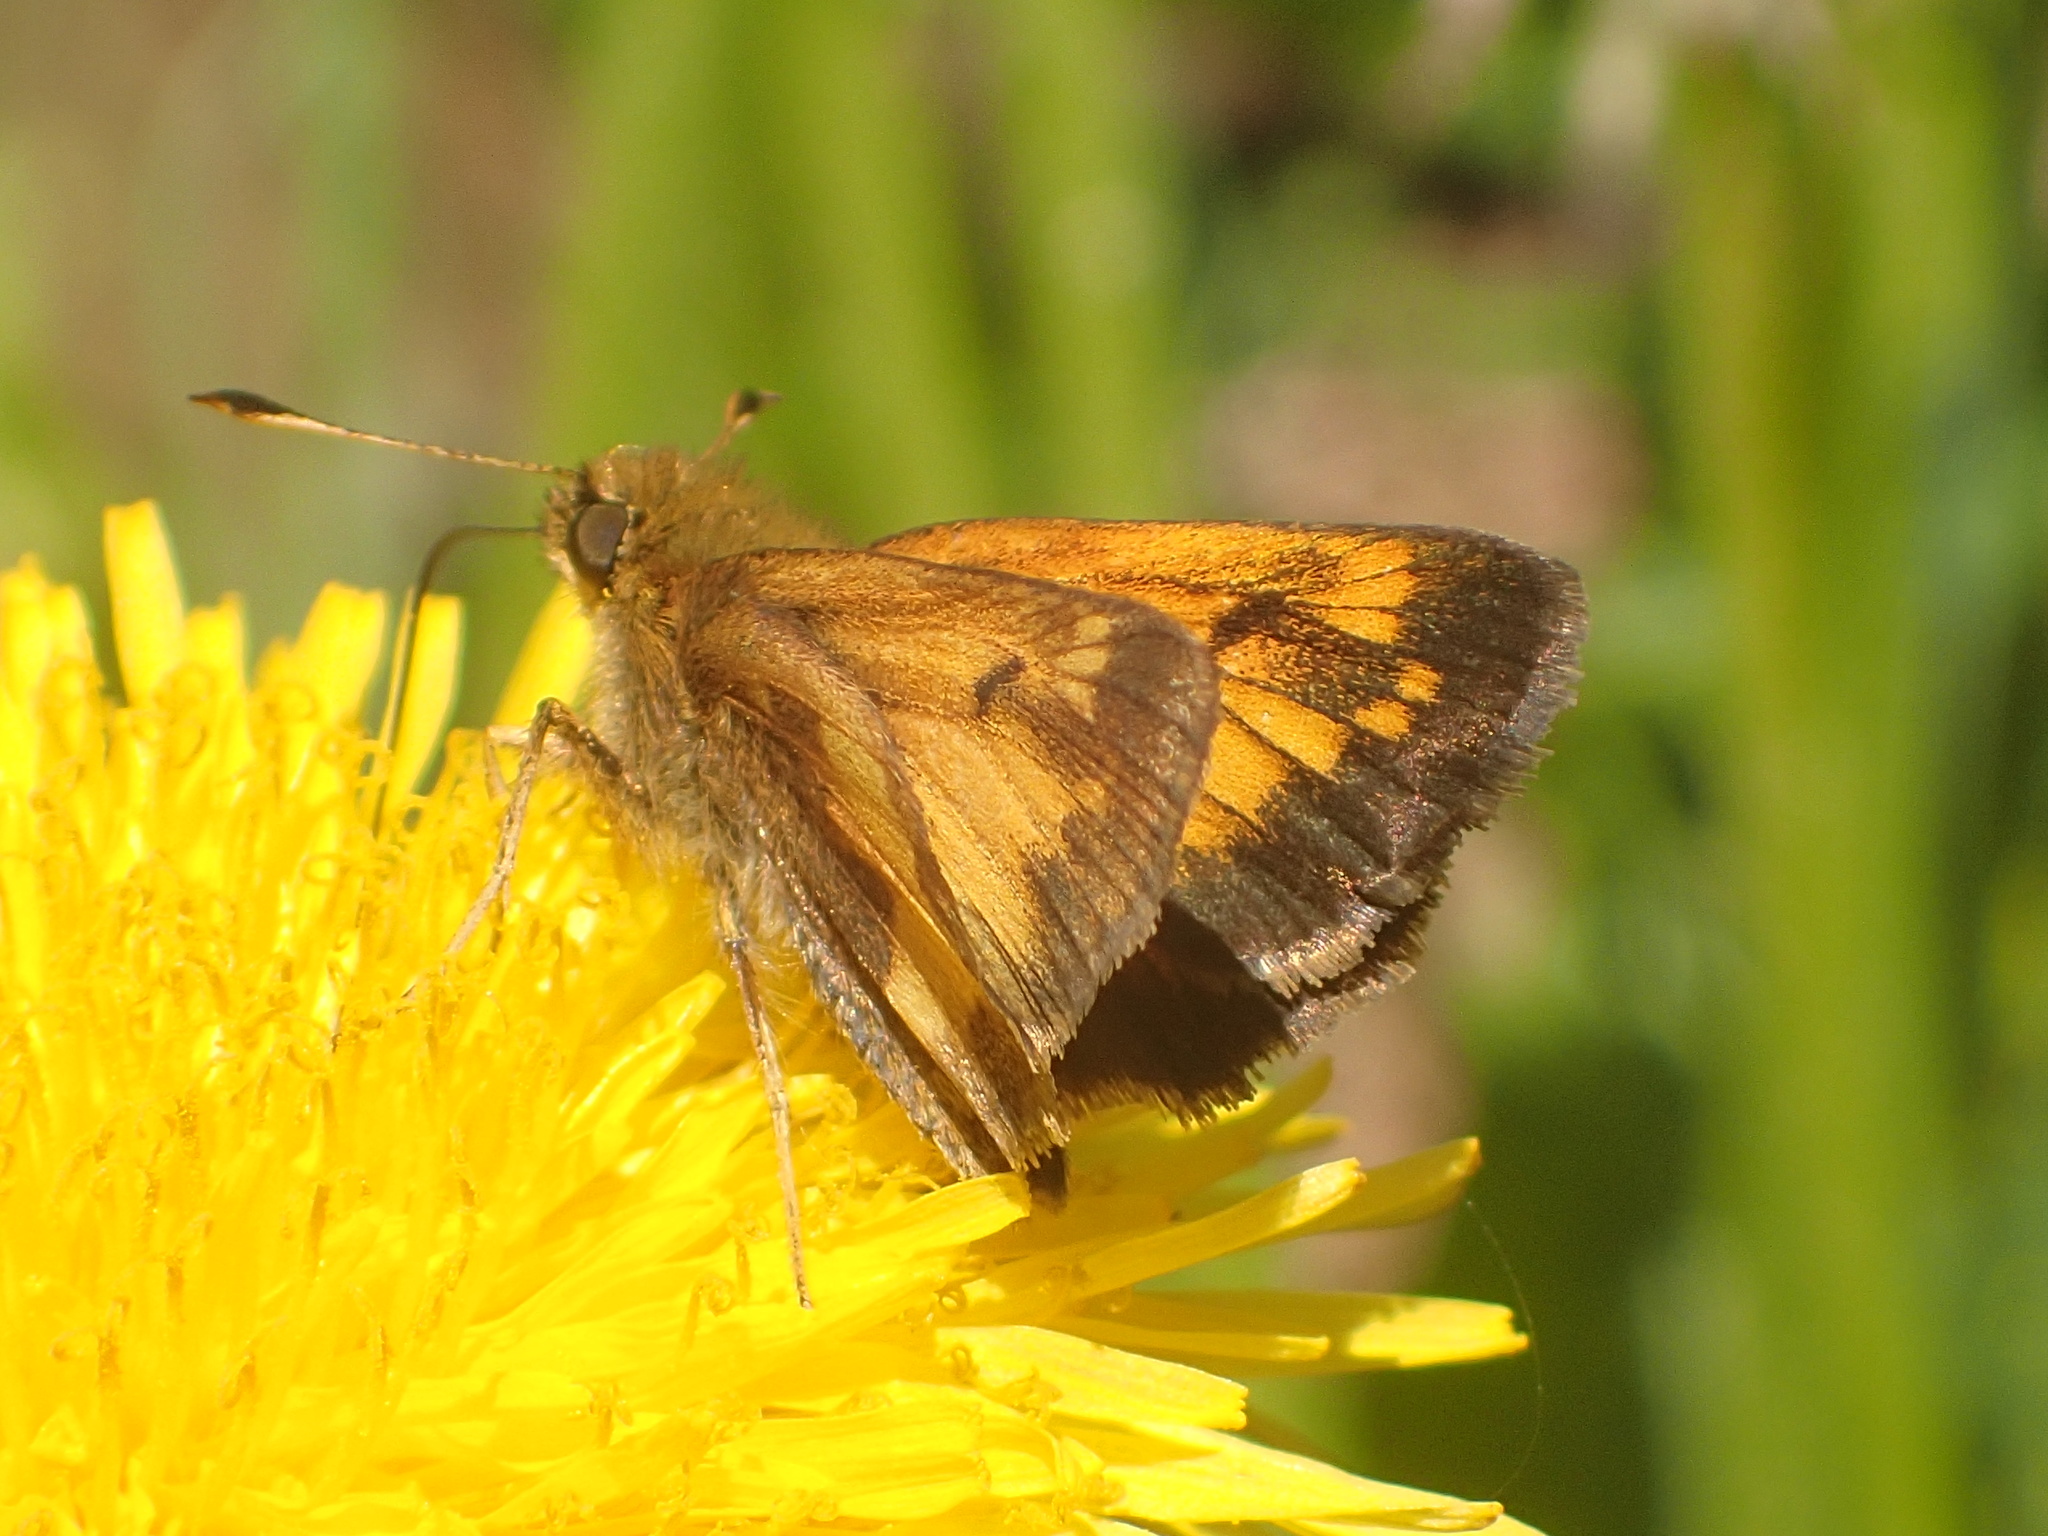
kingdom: Animalia
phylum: Arthropoda
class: Insecta
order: Lepidoptera
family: Hesperiidae
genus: Lon
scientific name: Lon hobomok
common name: Hobomok skipper
